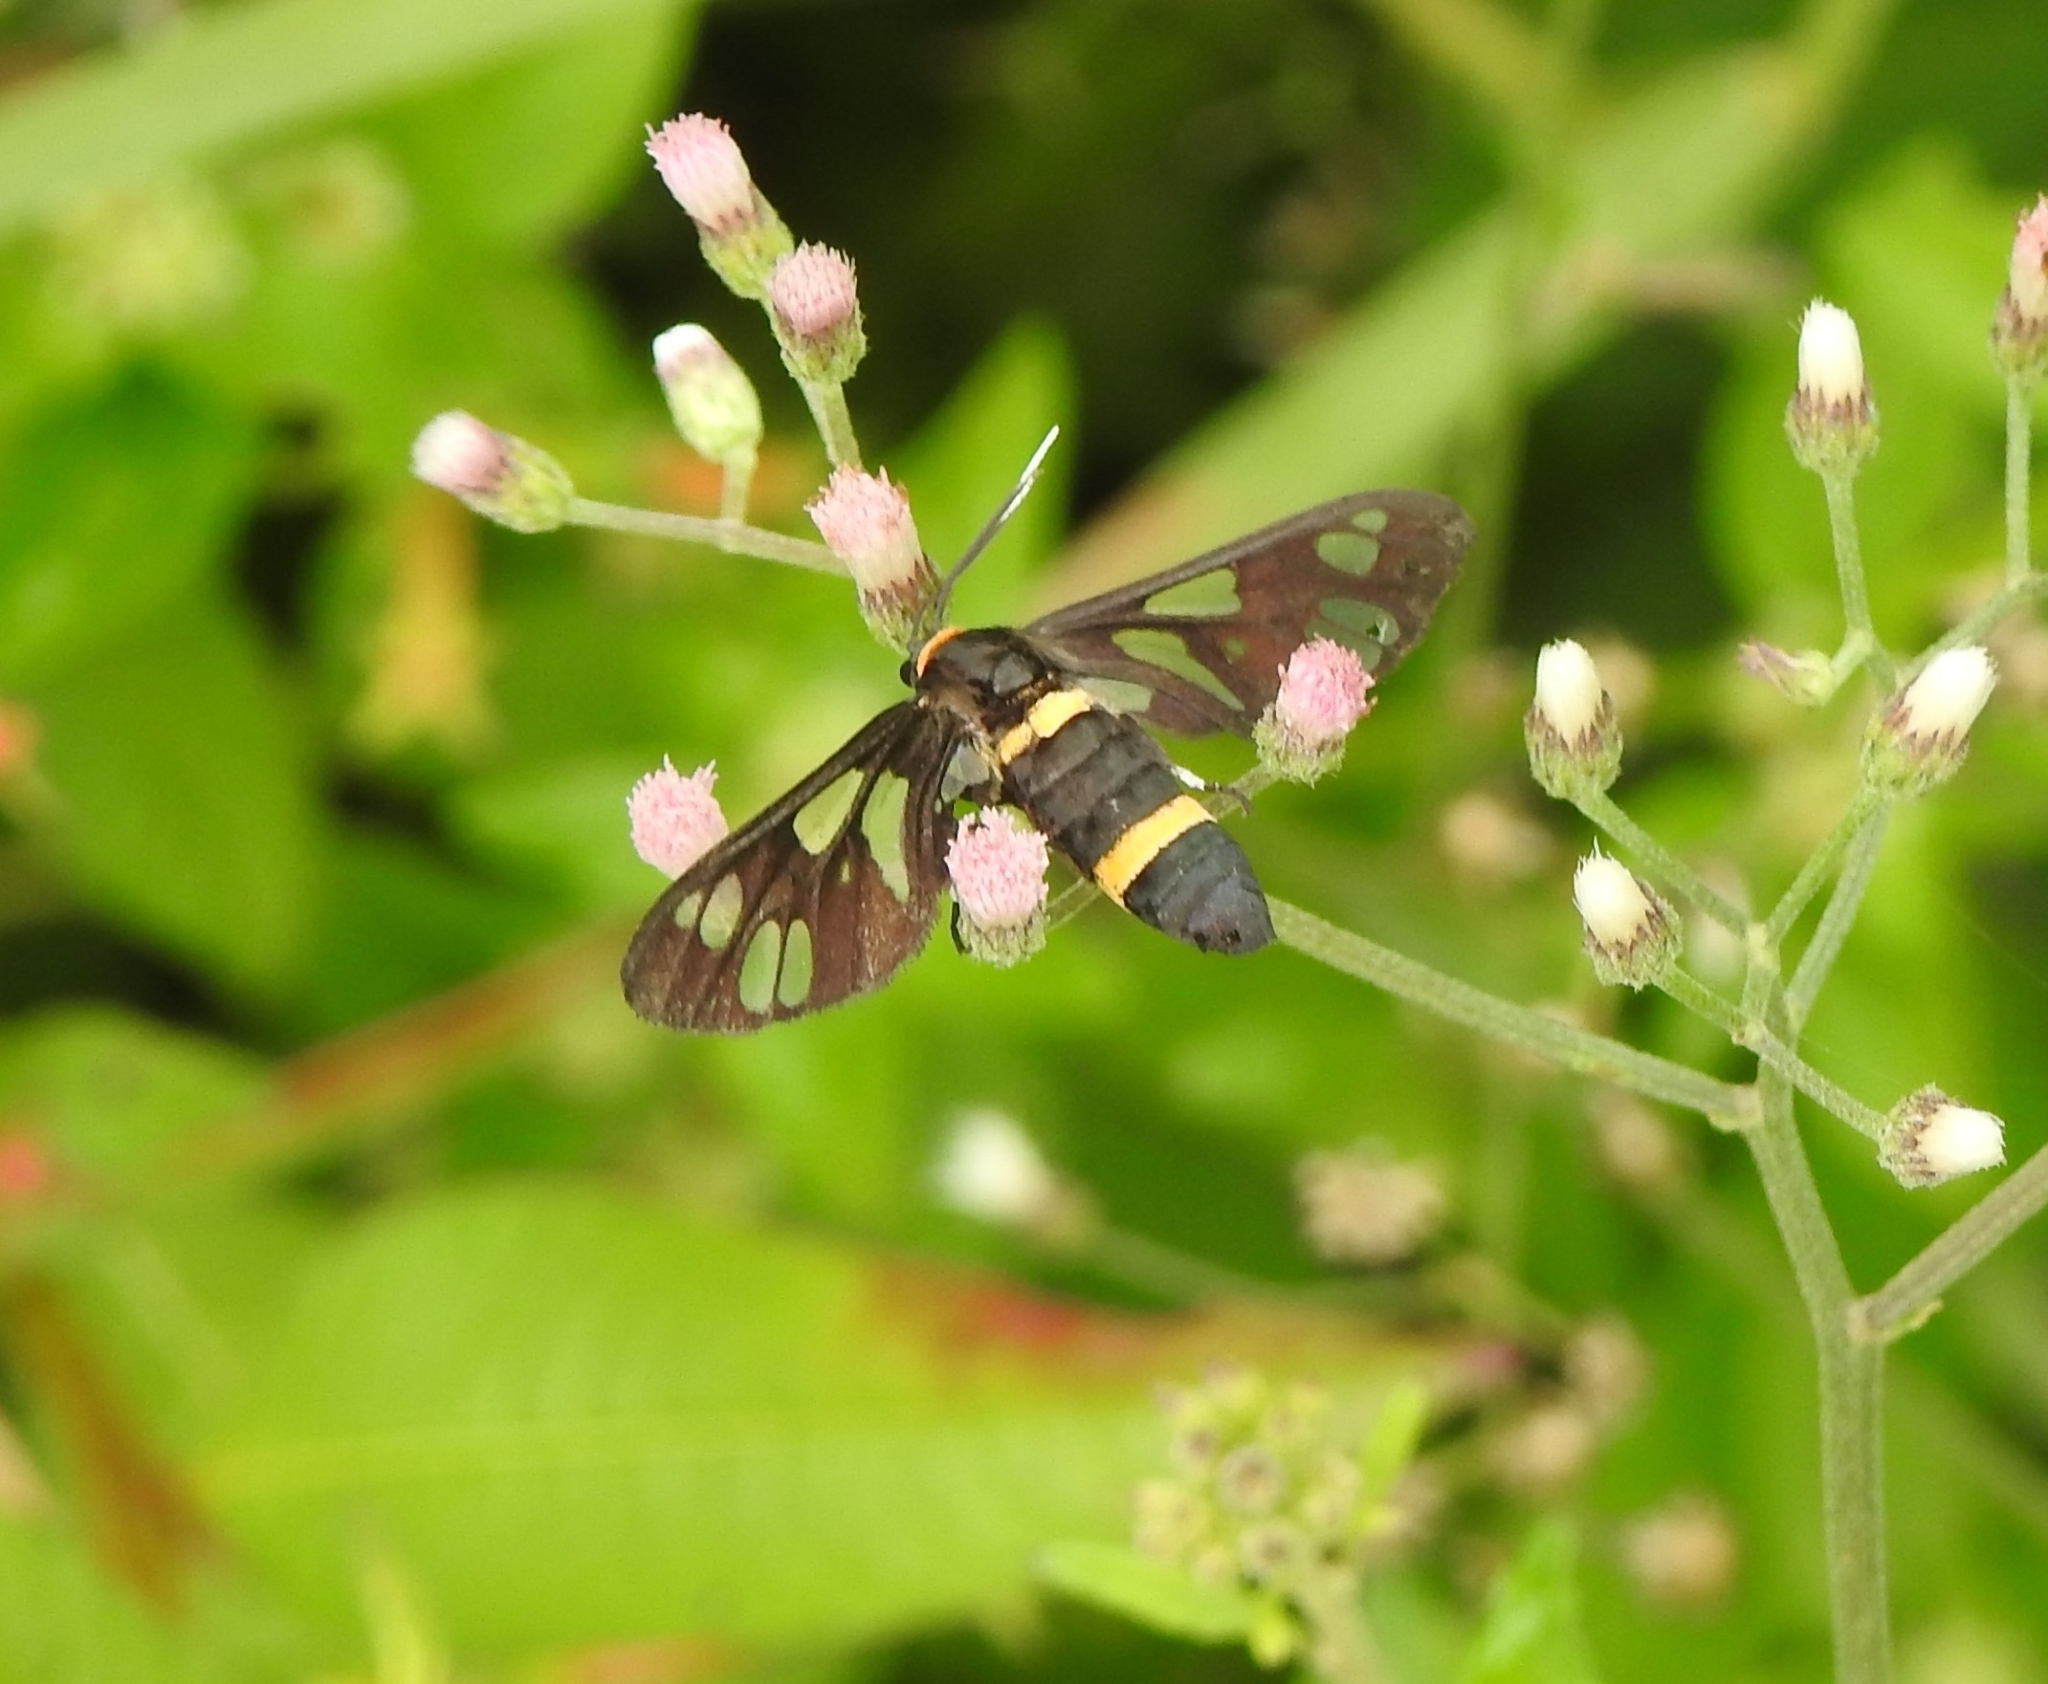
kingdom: Animalia
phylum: Arthropoda
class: Insecta
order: Lepidoptera
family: Erebidae
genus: Syntomoides
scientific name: Syntomoides imaon
